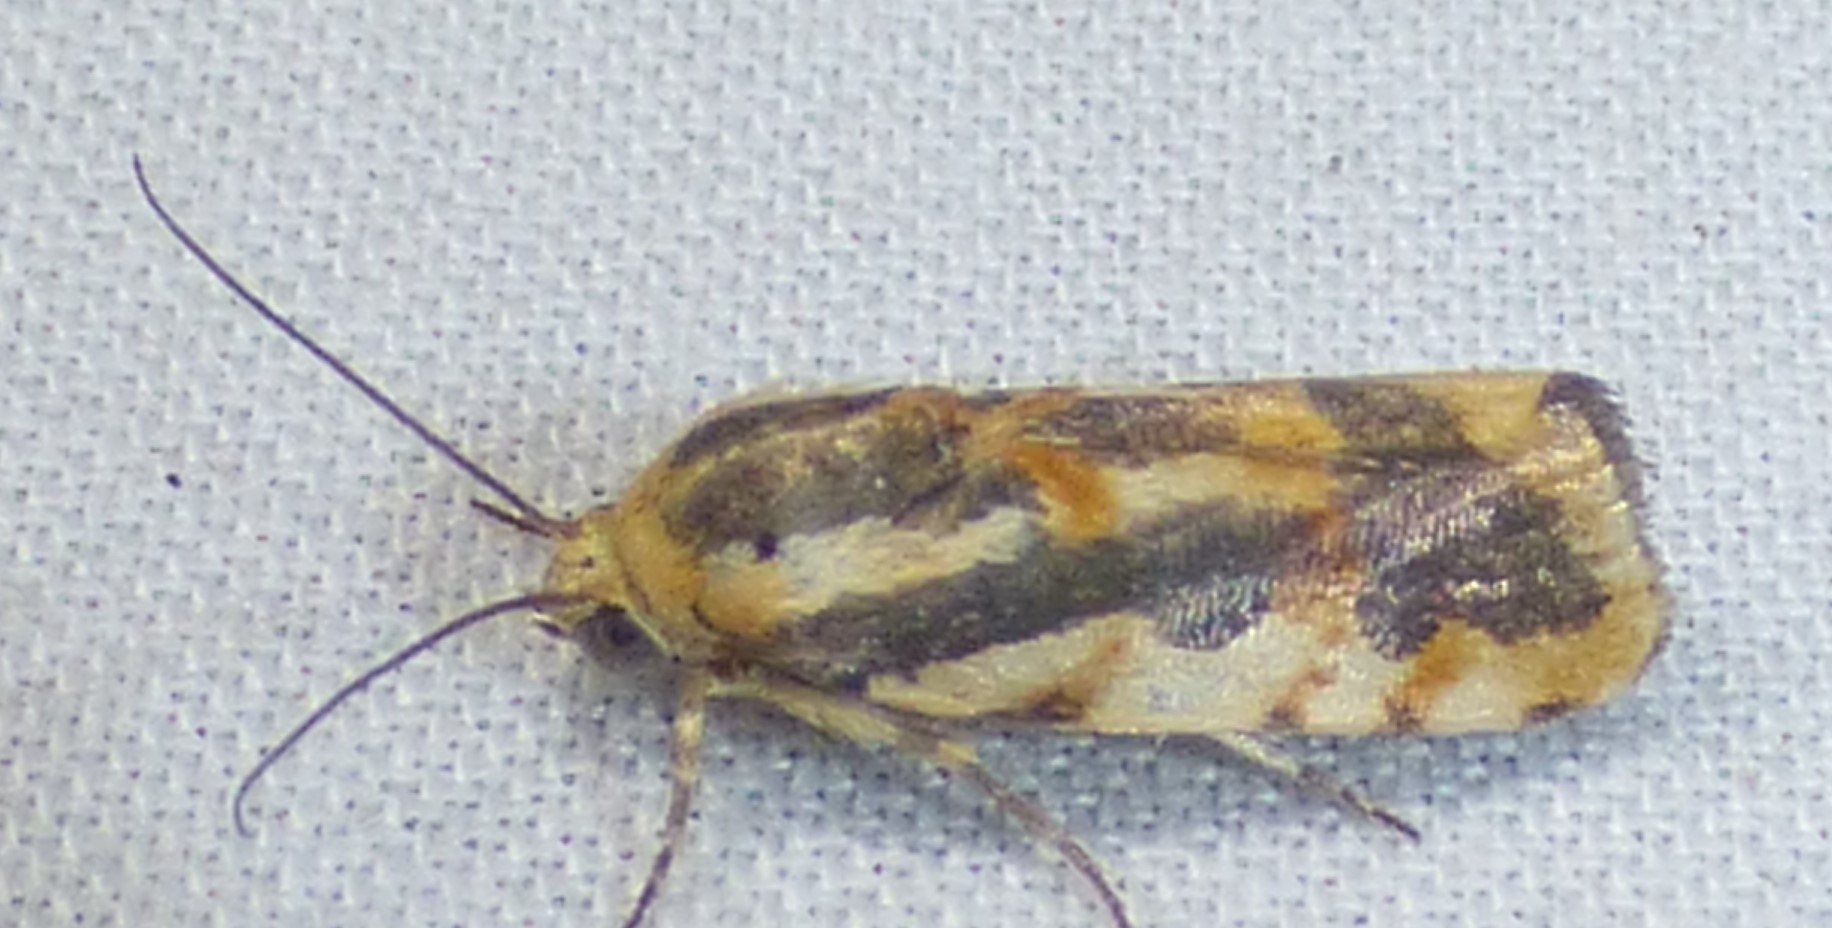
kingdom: Animalia
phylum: Arthropoda
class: Insecta
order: Lepidoptera
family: Noctuidae
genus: Acontia
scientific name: Acontia leo
